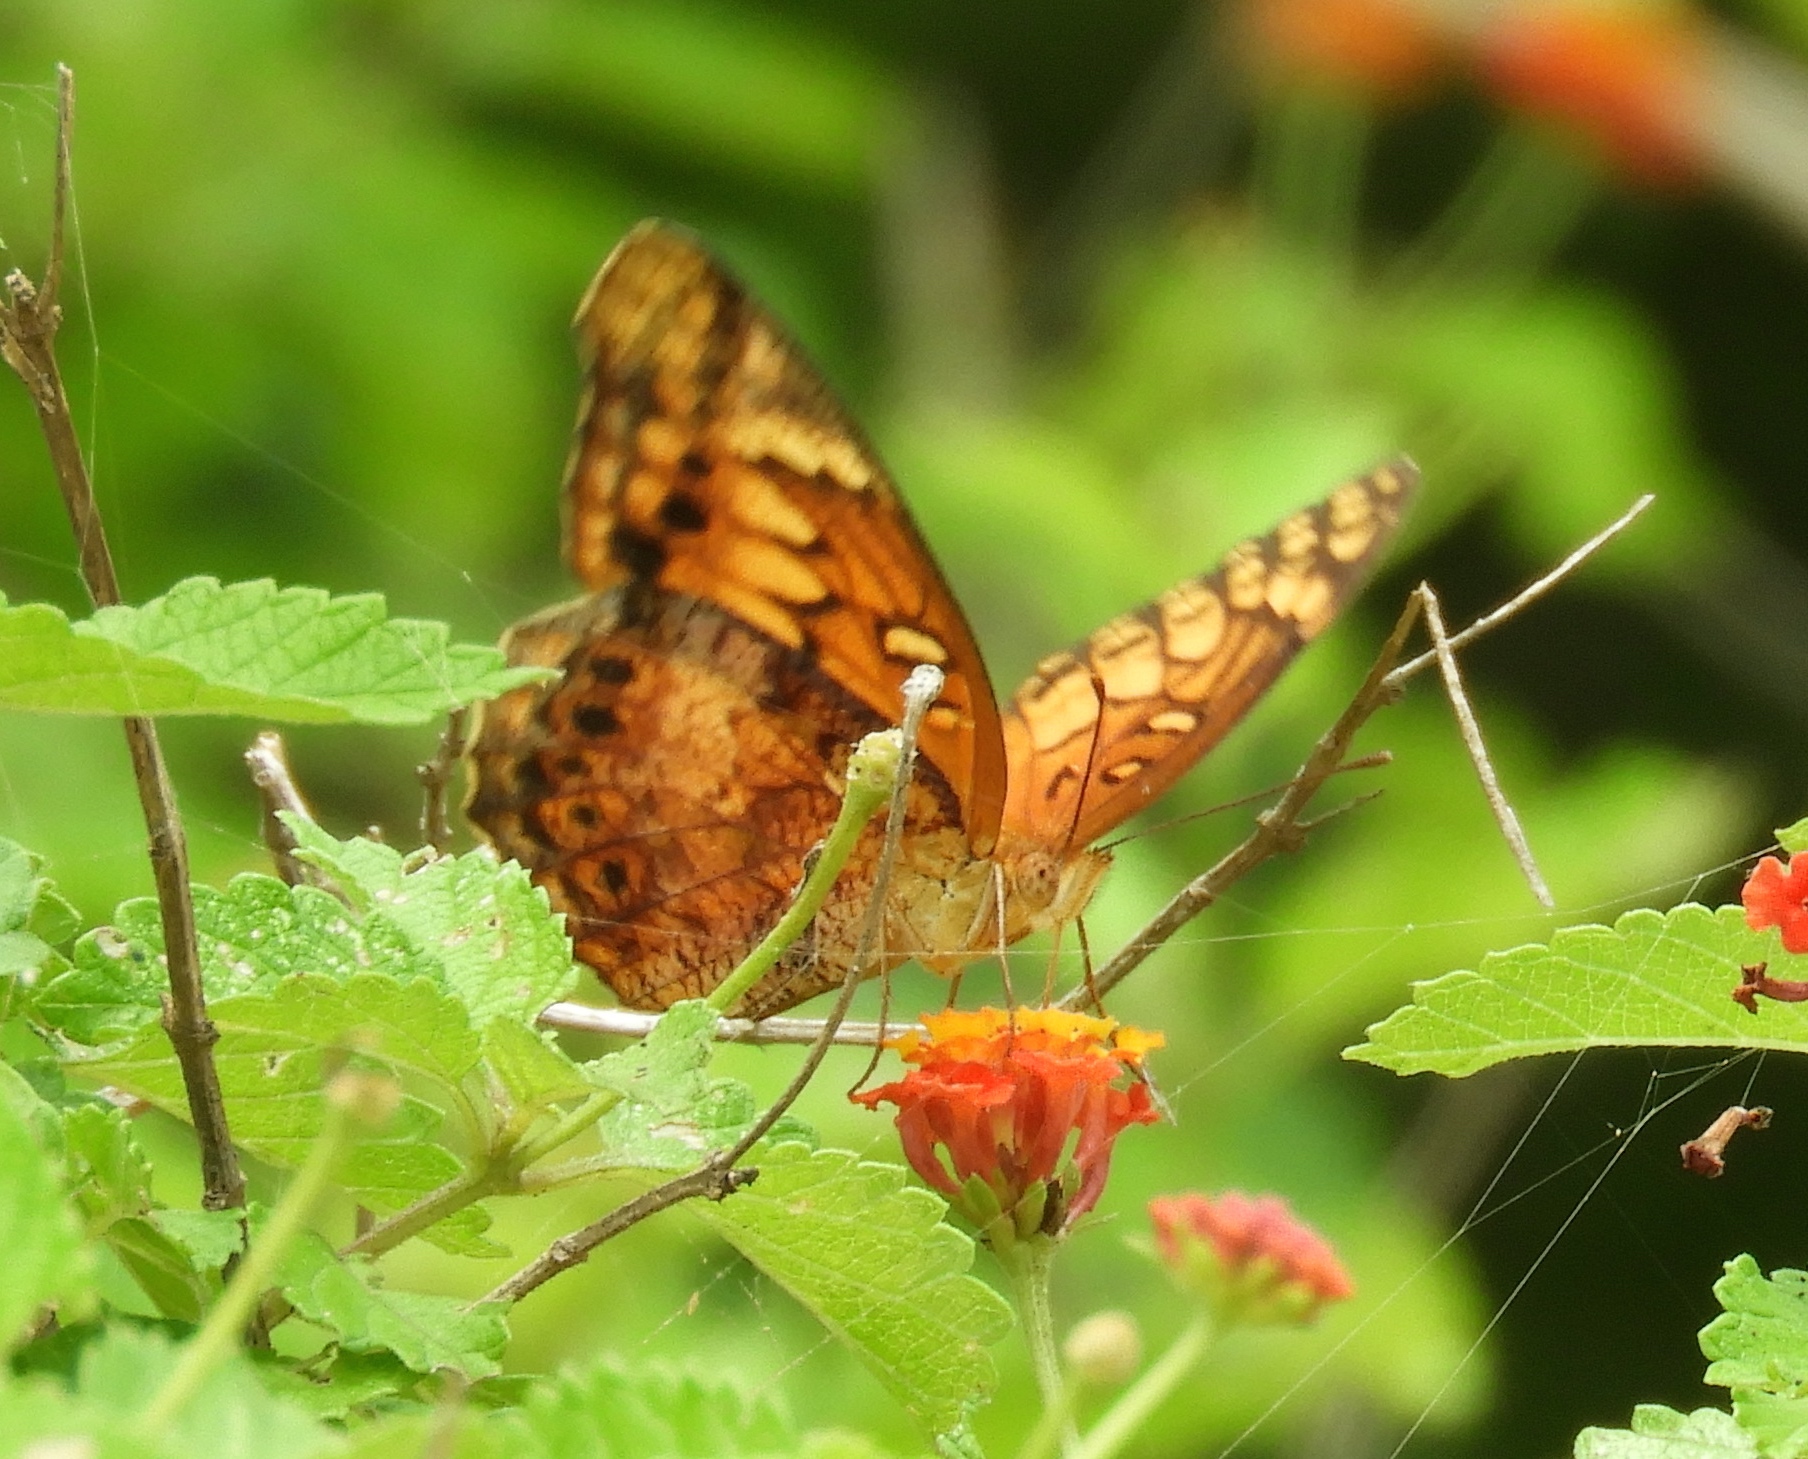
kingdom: Animalia
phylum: Arthropoda
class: Insecta
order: Lepidoptera
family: Nymphalidae
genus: Euptoieta
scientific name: Euptoieta hegesia
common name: Mexican fritillary
